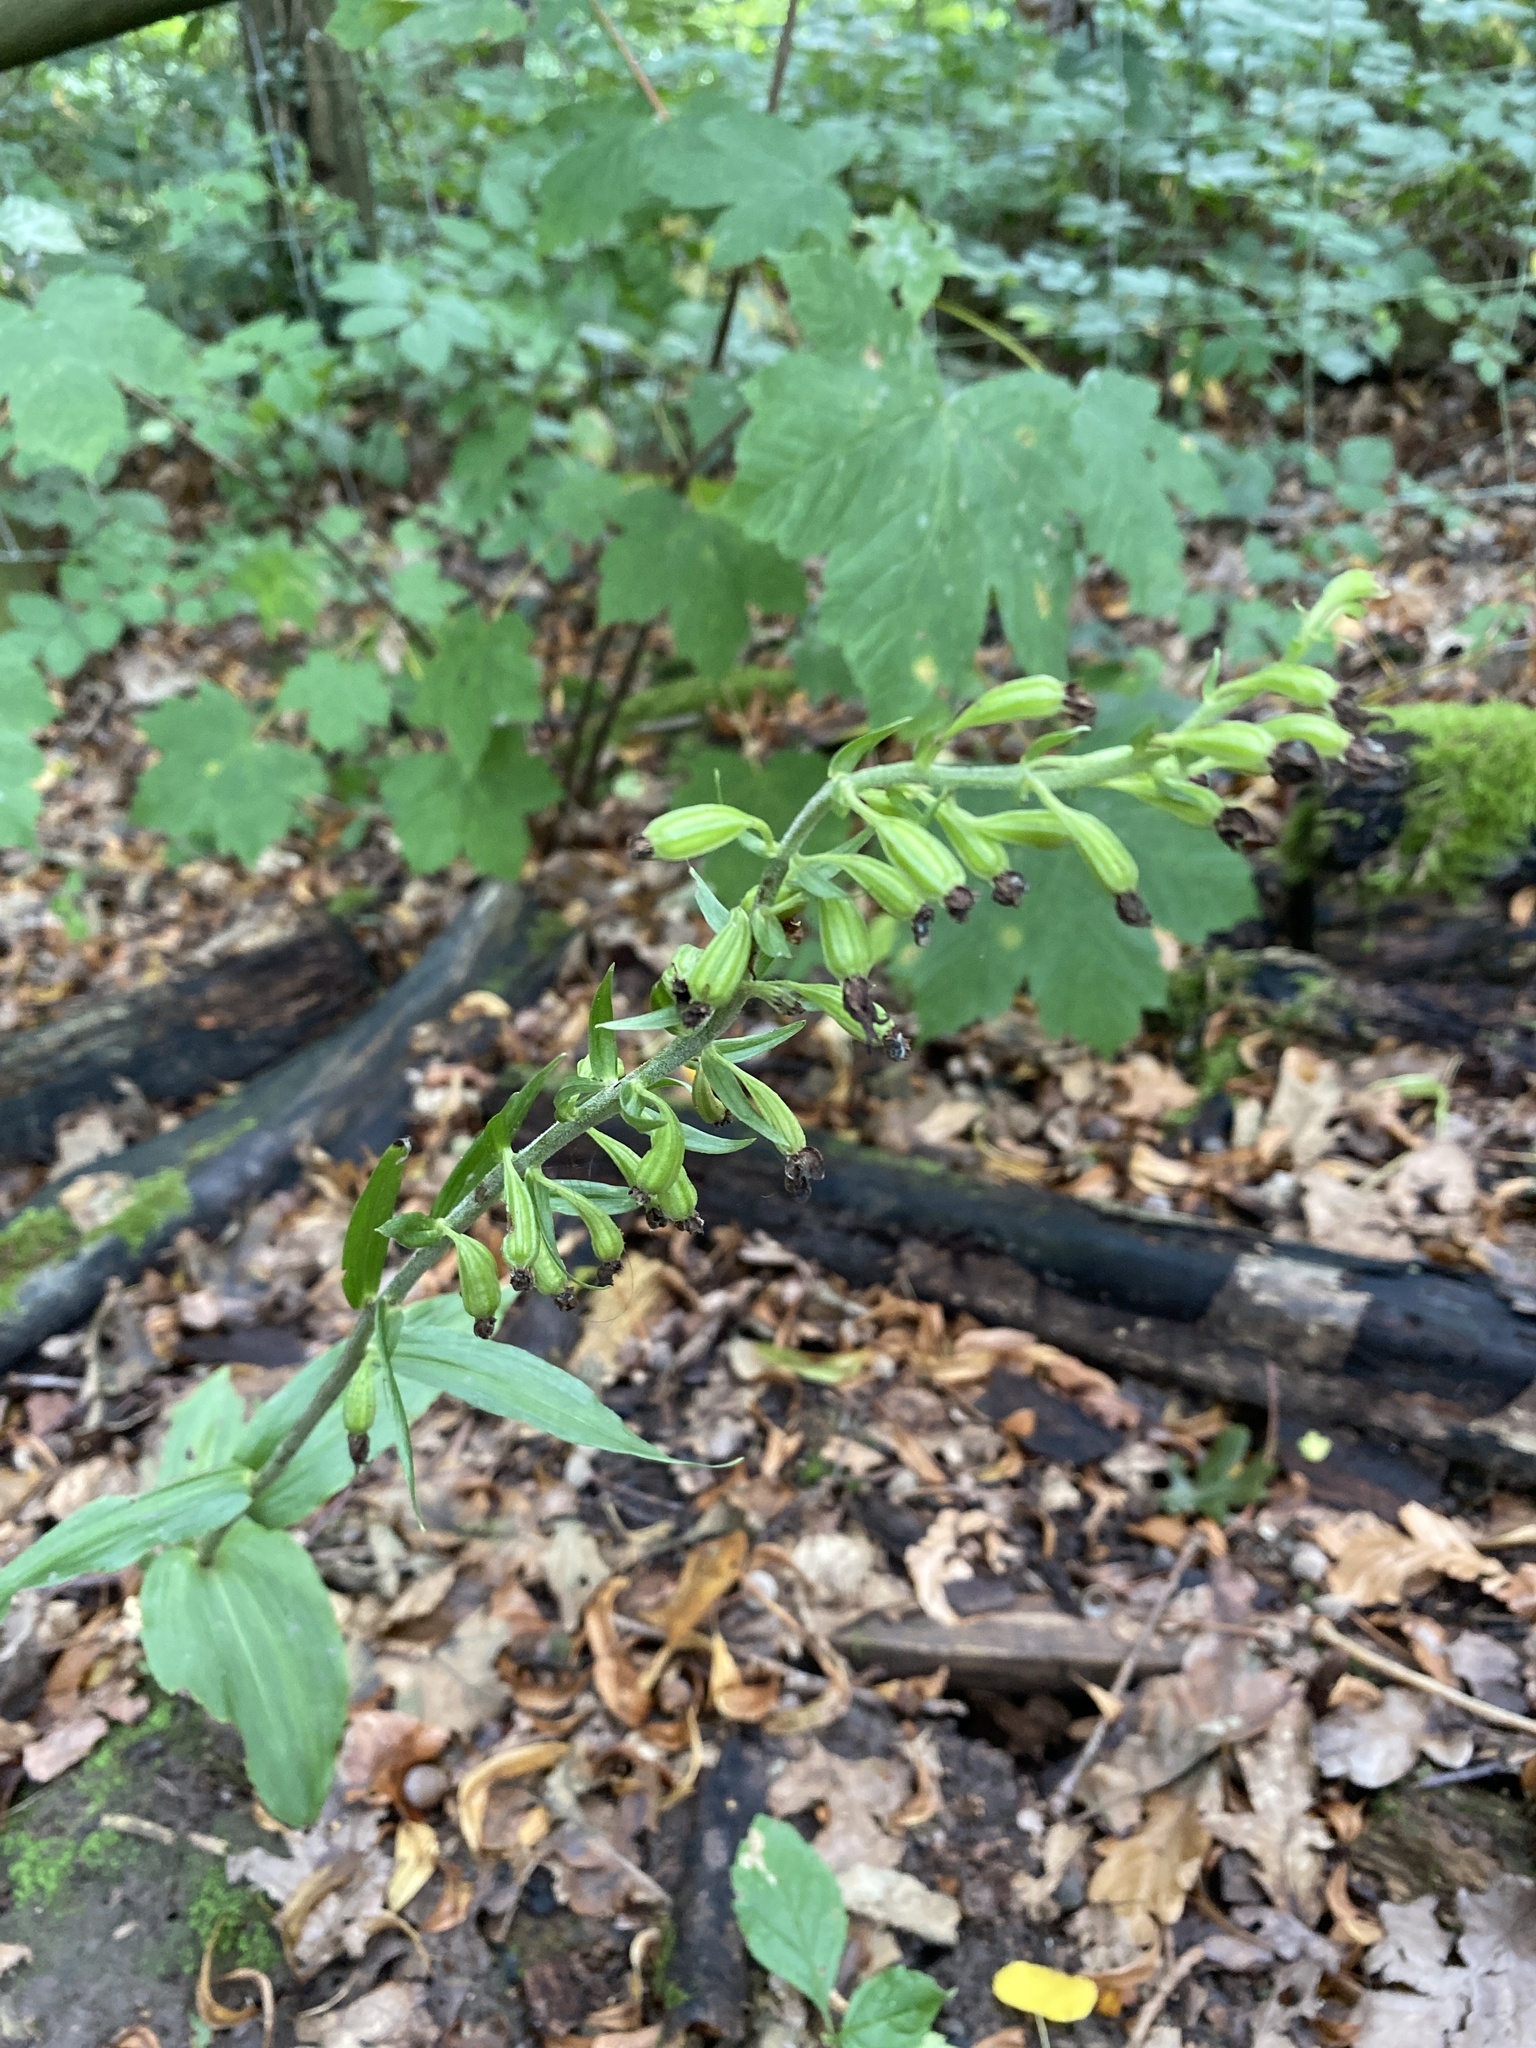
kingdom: Plantae
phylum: Tracheophyta
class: Liliopsida
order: Asparagales
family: Orchidaceae
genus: Epipactis
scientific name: Epipactis helleborine
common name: Broad-leaved helleborine
